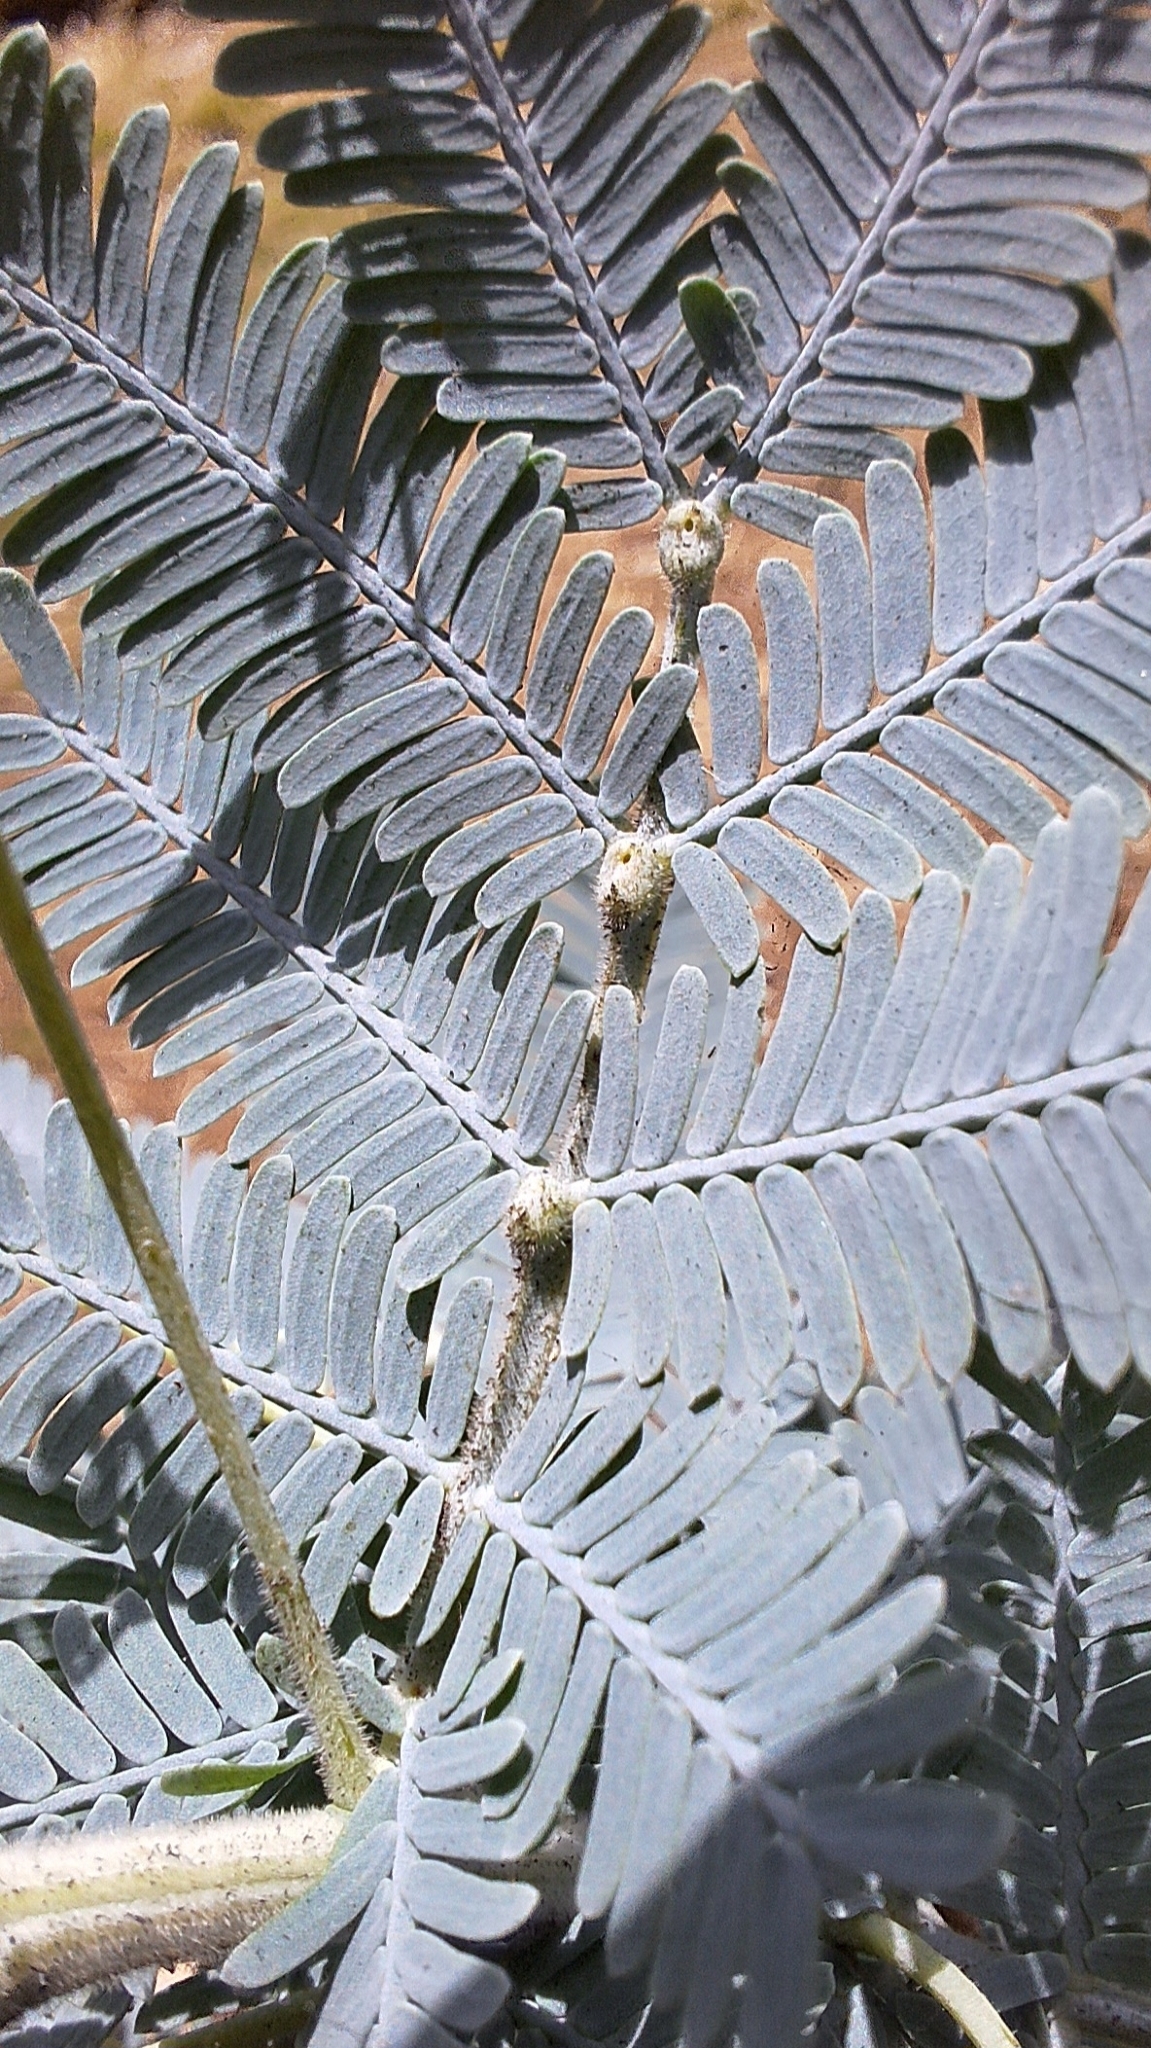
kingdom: Plantae
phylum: Tracheophyta
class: Magnoliopsida
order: Fabales
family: Fabaceae
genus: Acacia
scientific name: Acacia baileyana
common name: Cootamundra wattle
